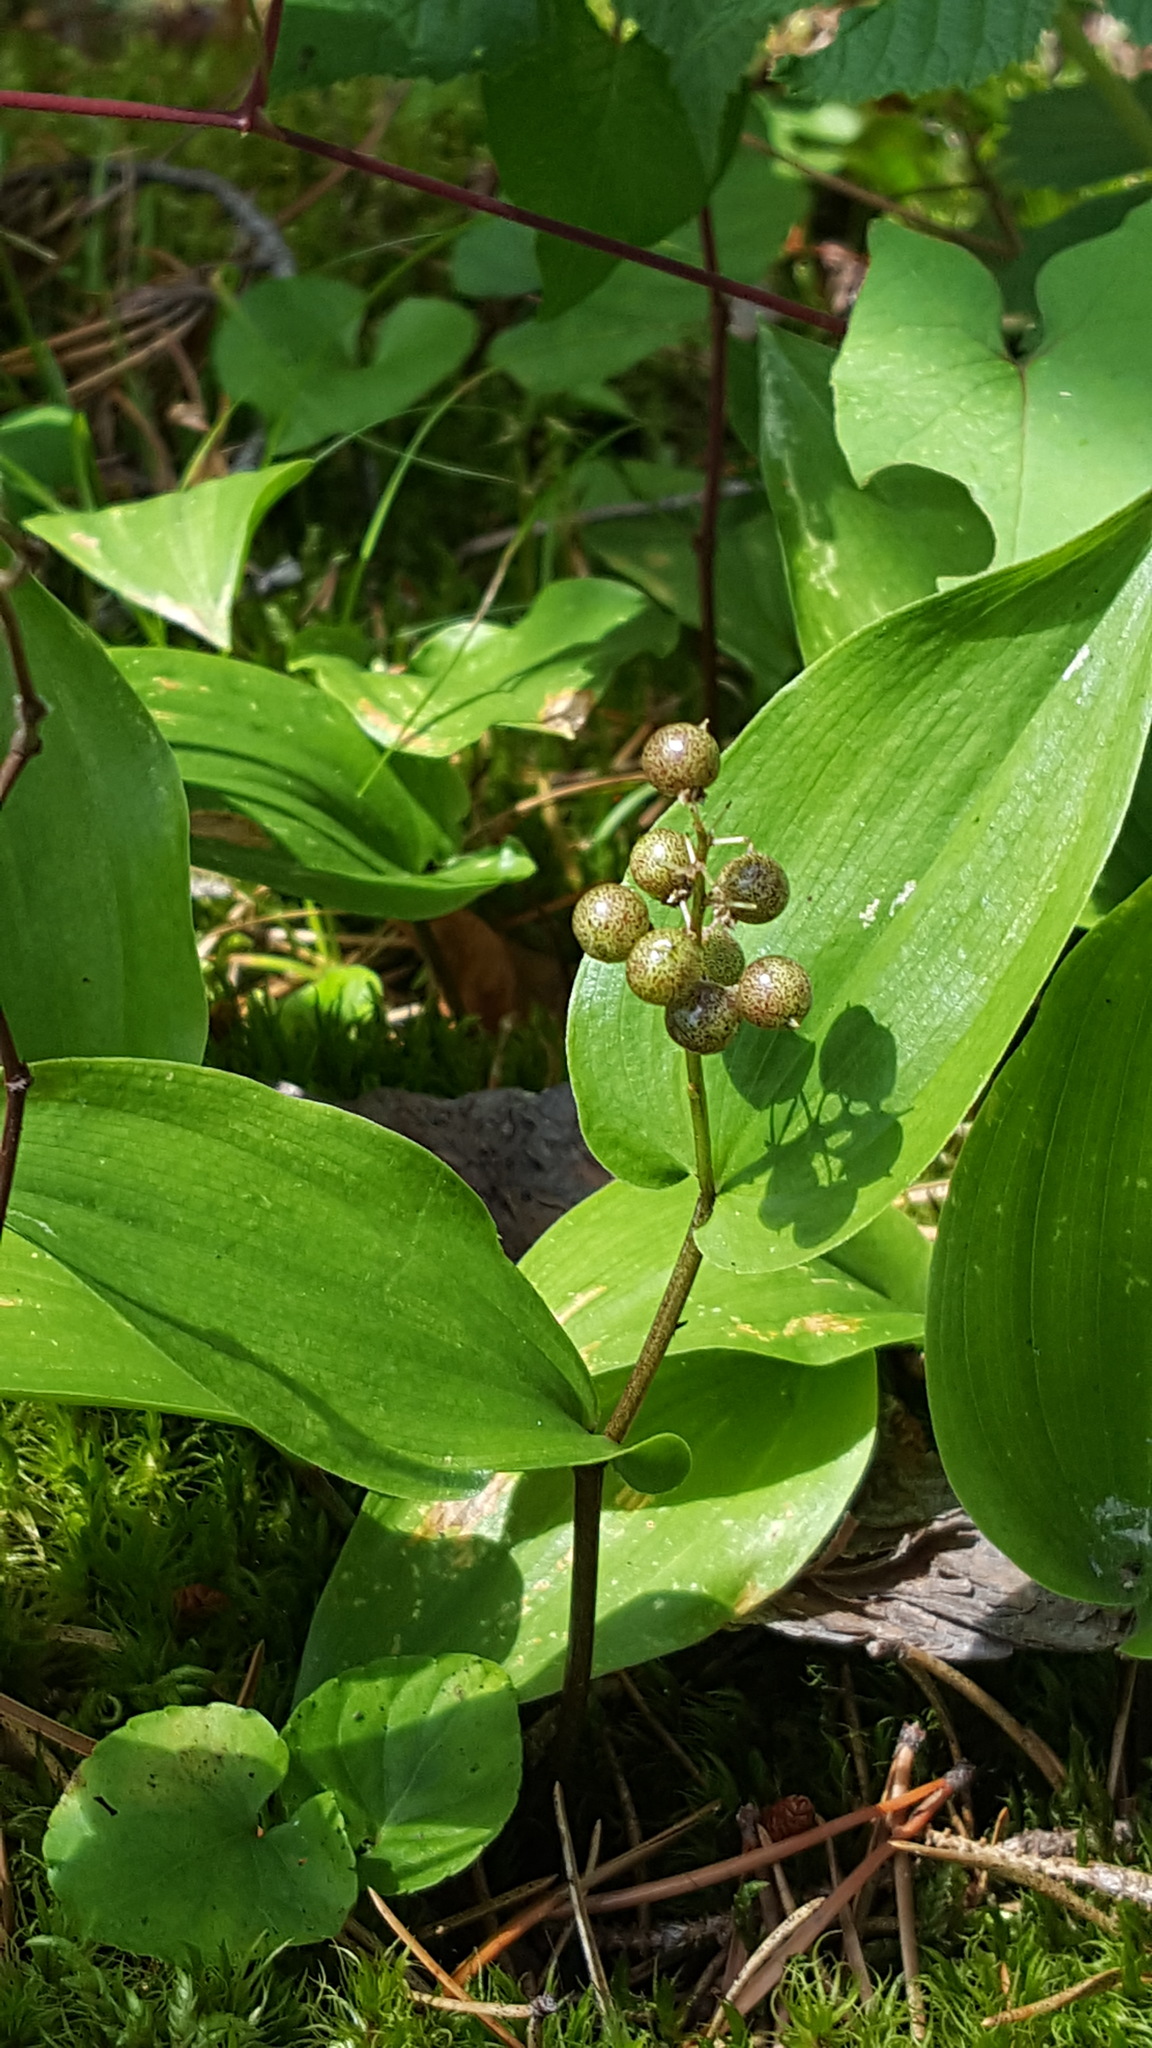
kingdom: Plantae
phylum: Tracheophyta
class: Liliopsida
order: Asparagales
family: Asparagaceae
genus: Maianthemum
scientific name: Maianthemum canadense
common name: False lily-of-the-valley
